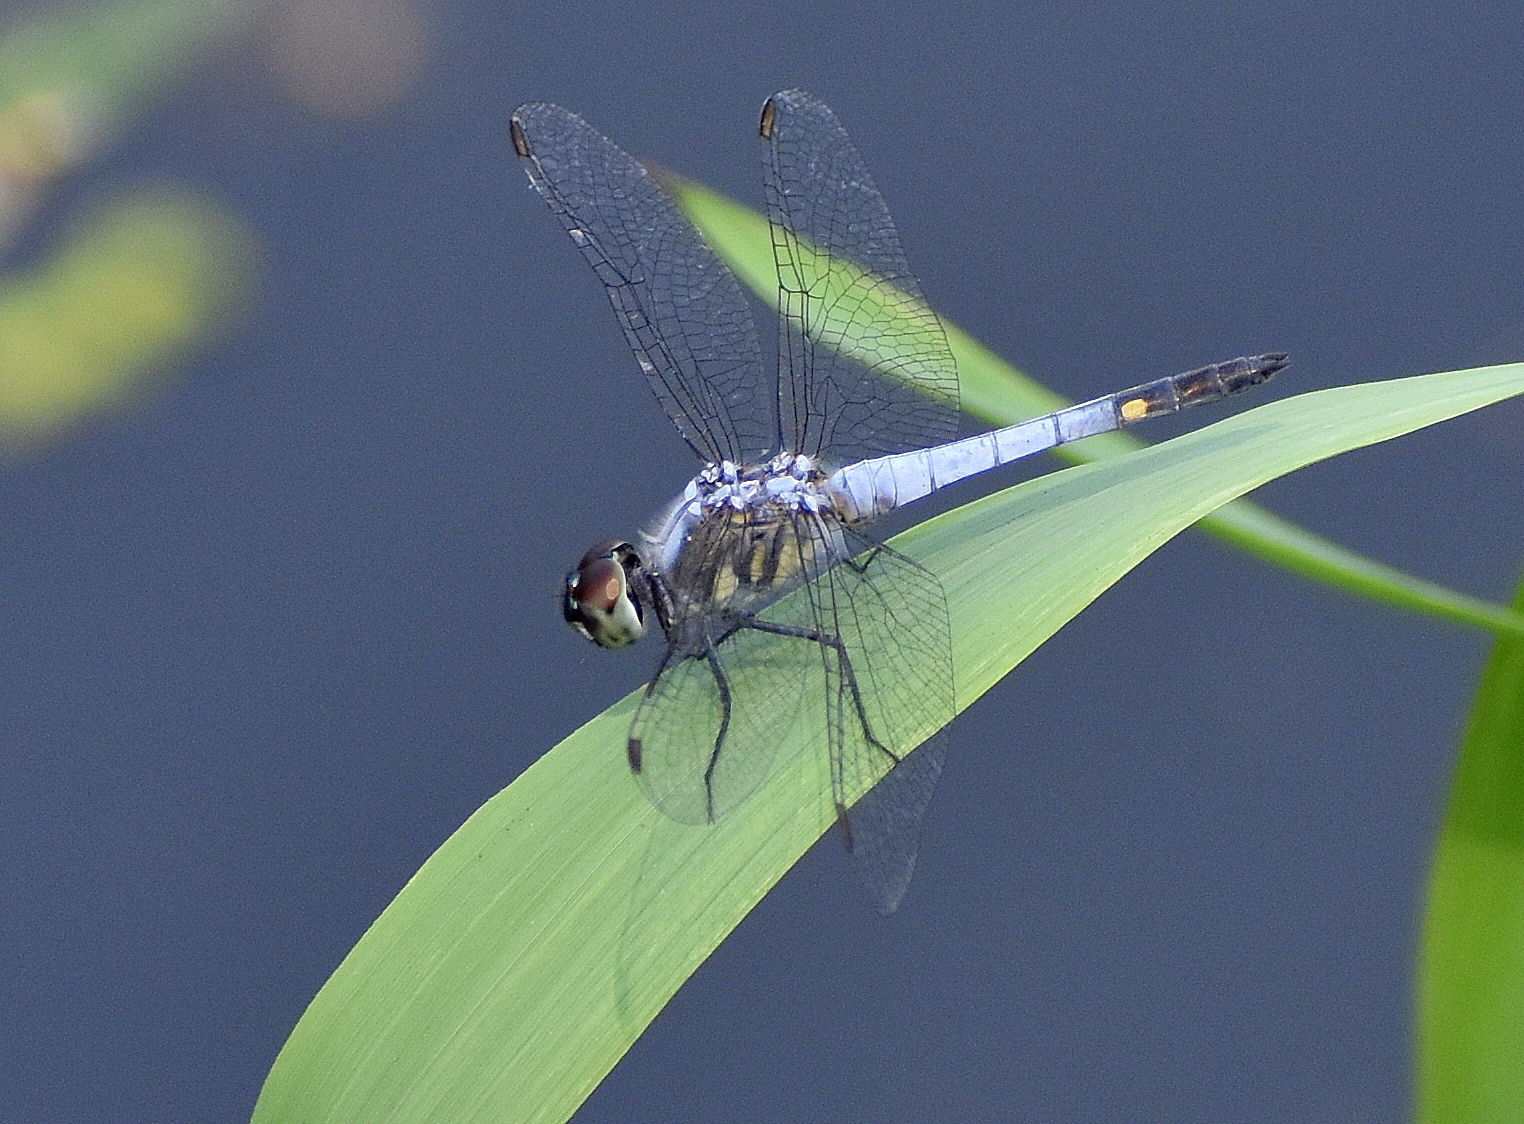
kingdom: Animalia
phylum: Arthropoda
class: Insecta
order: Odonata
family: Libellulidae
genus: Brachydiplax
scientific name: Brachydiplax sobrina
